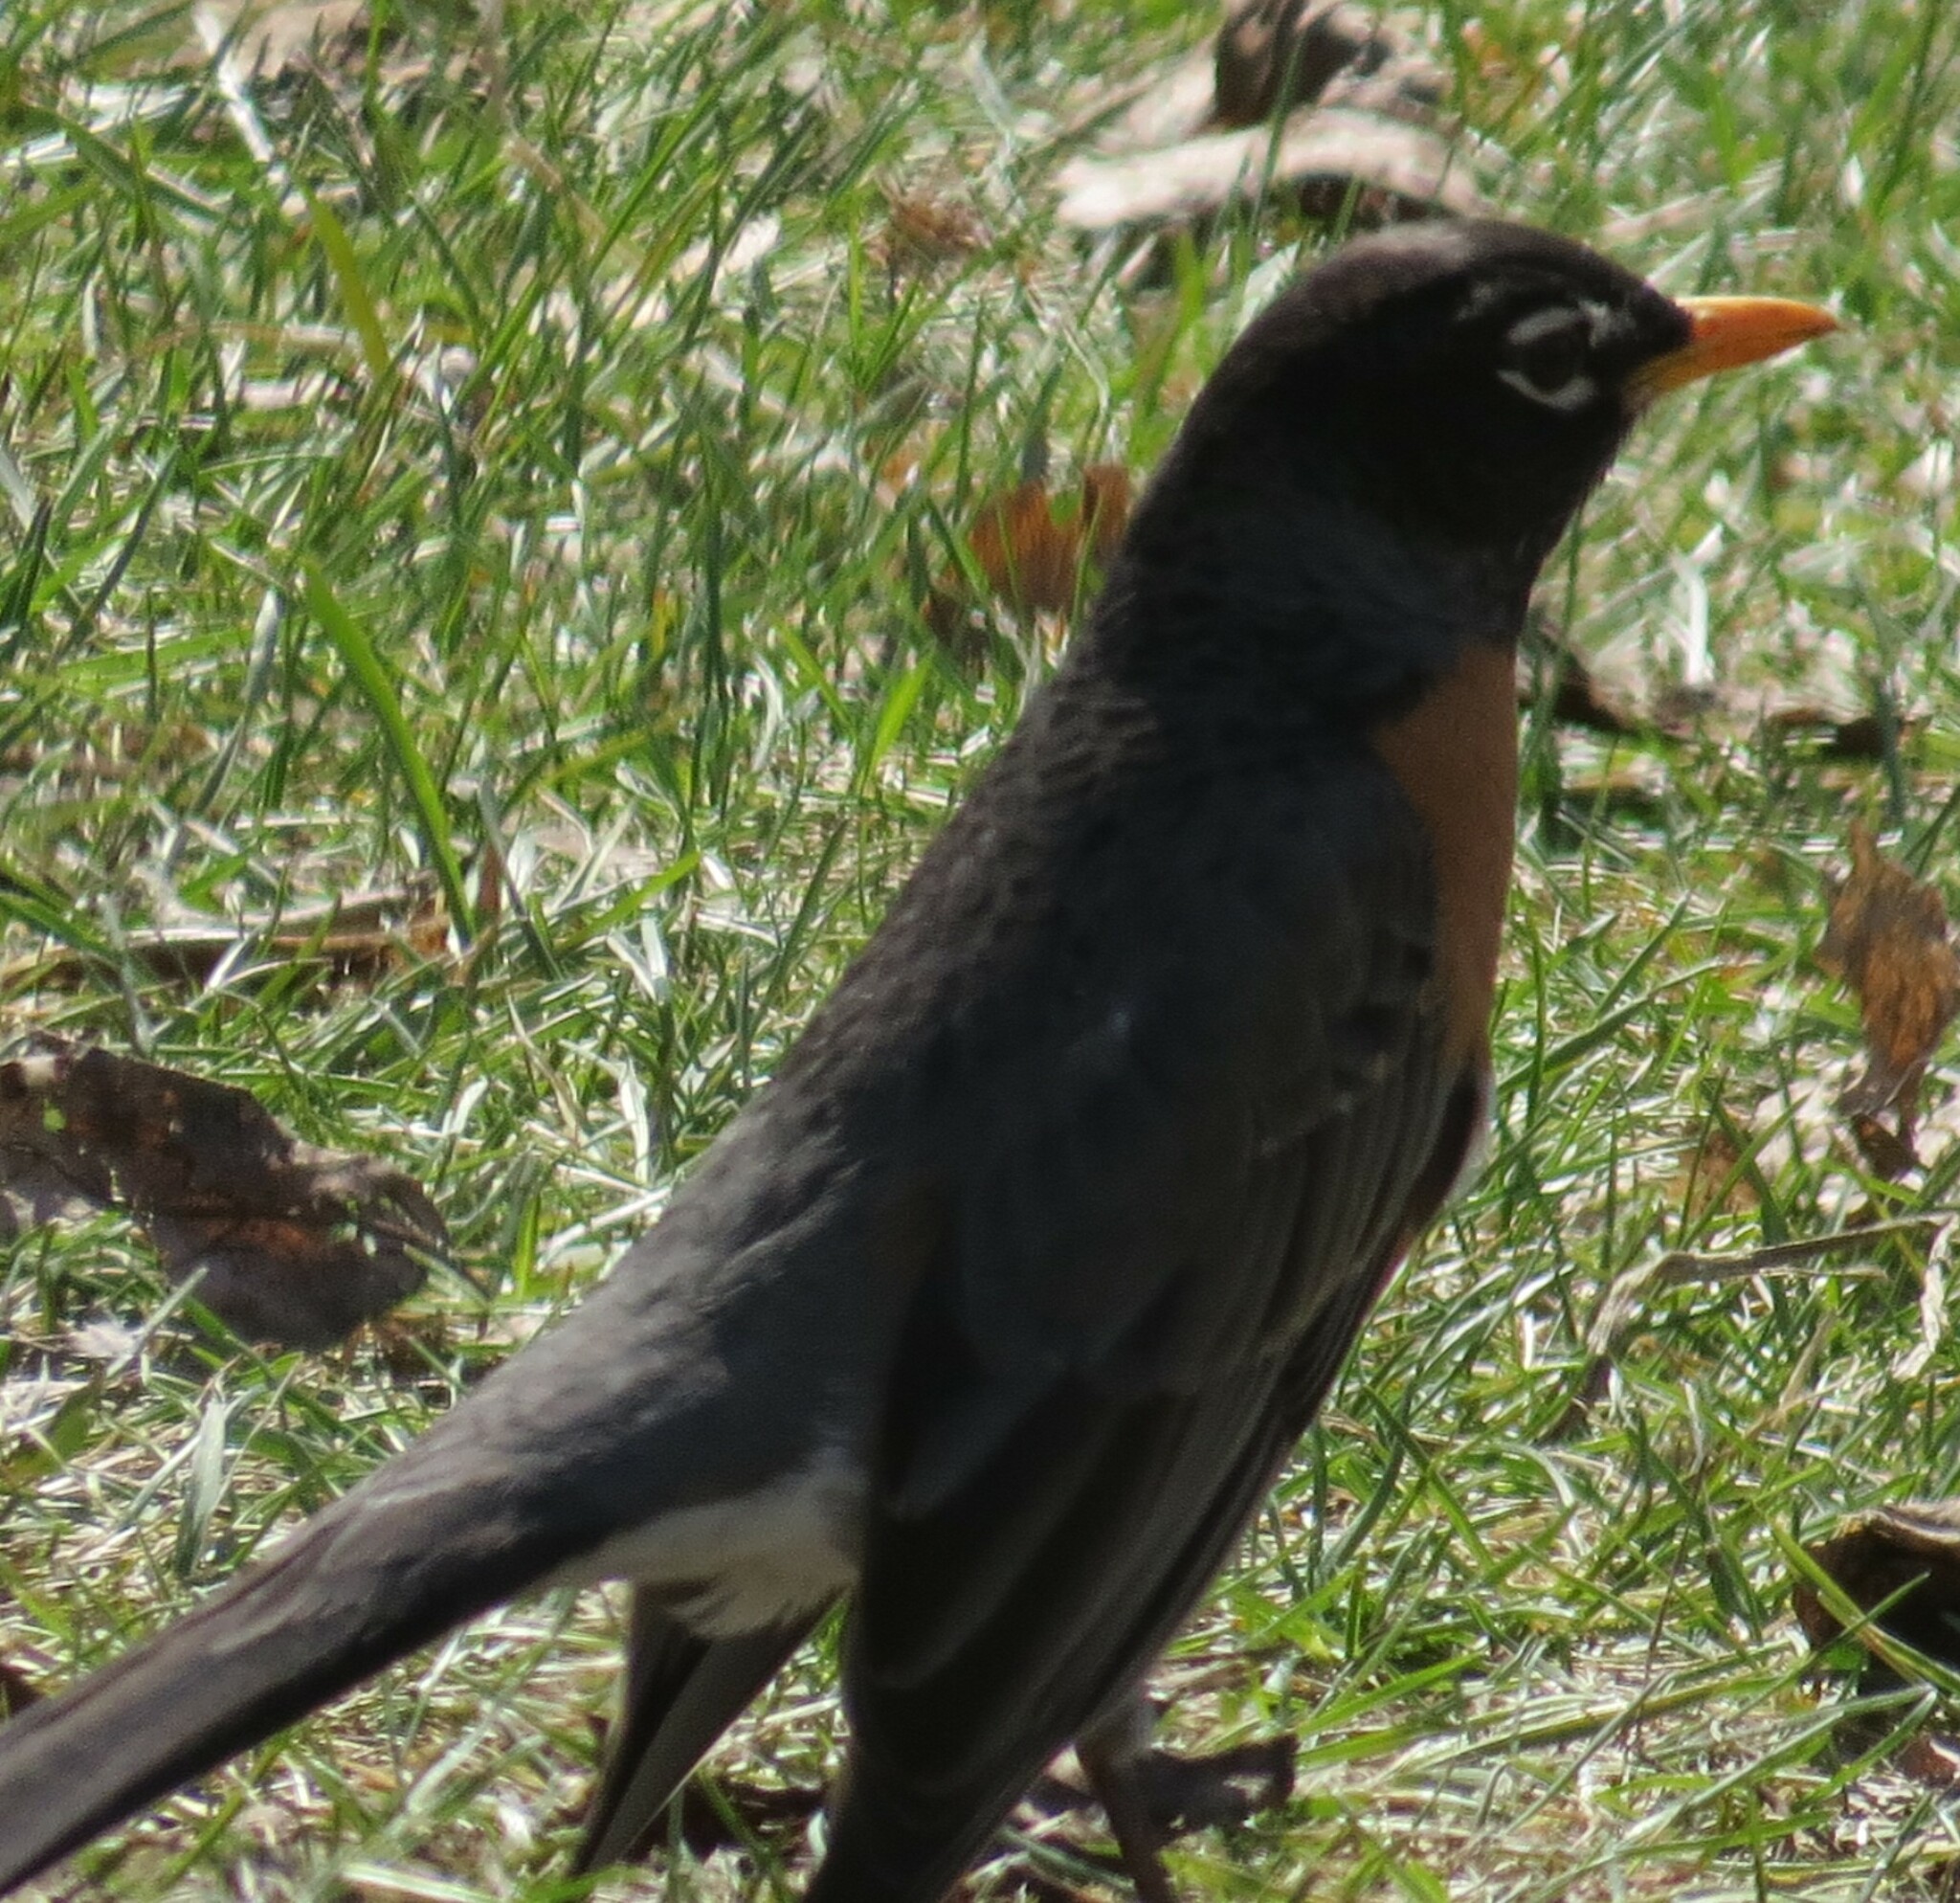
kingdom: Animalia
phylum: Chordata
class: Aves
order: Passeriformes
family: Turdidae
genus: Turdus
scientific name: Turdus migratorius
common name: American robin
